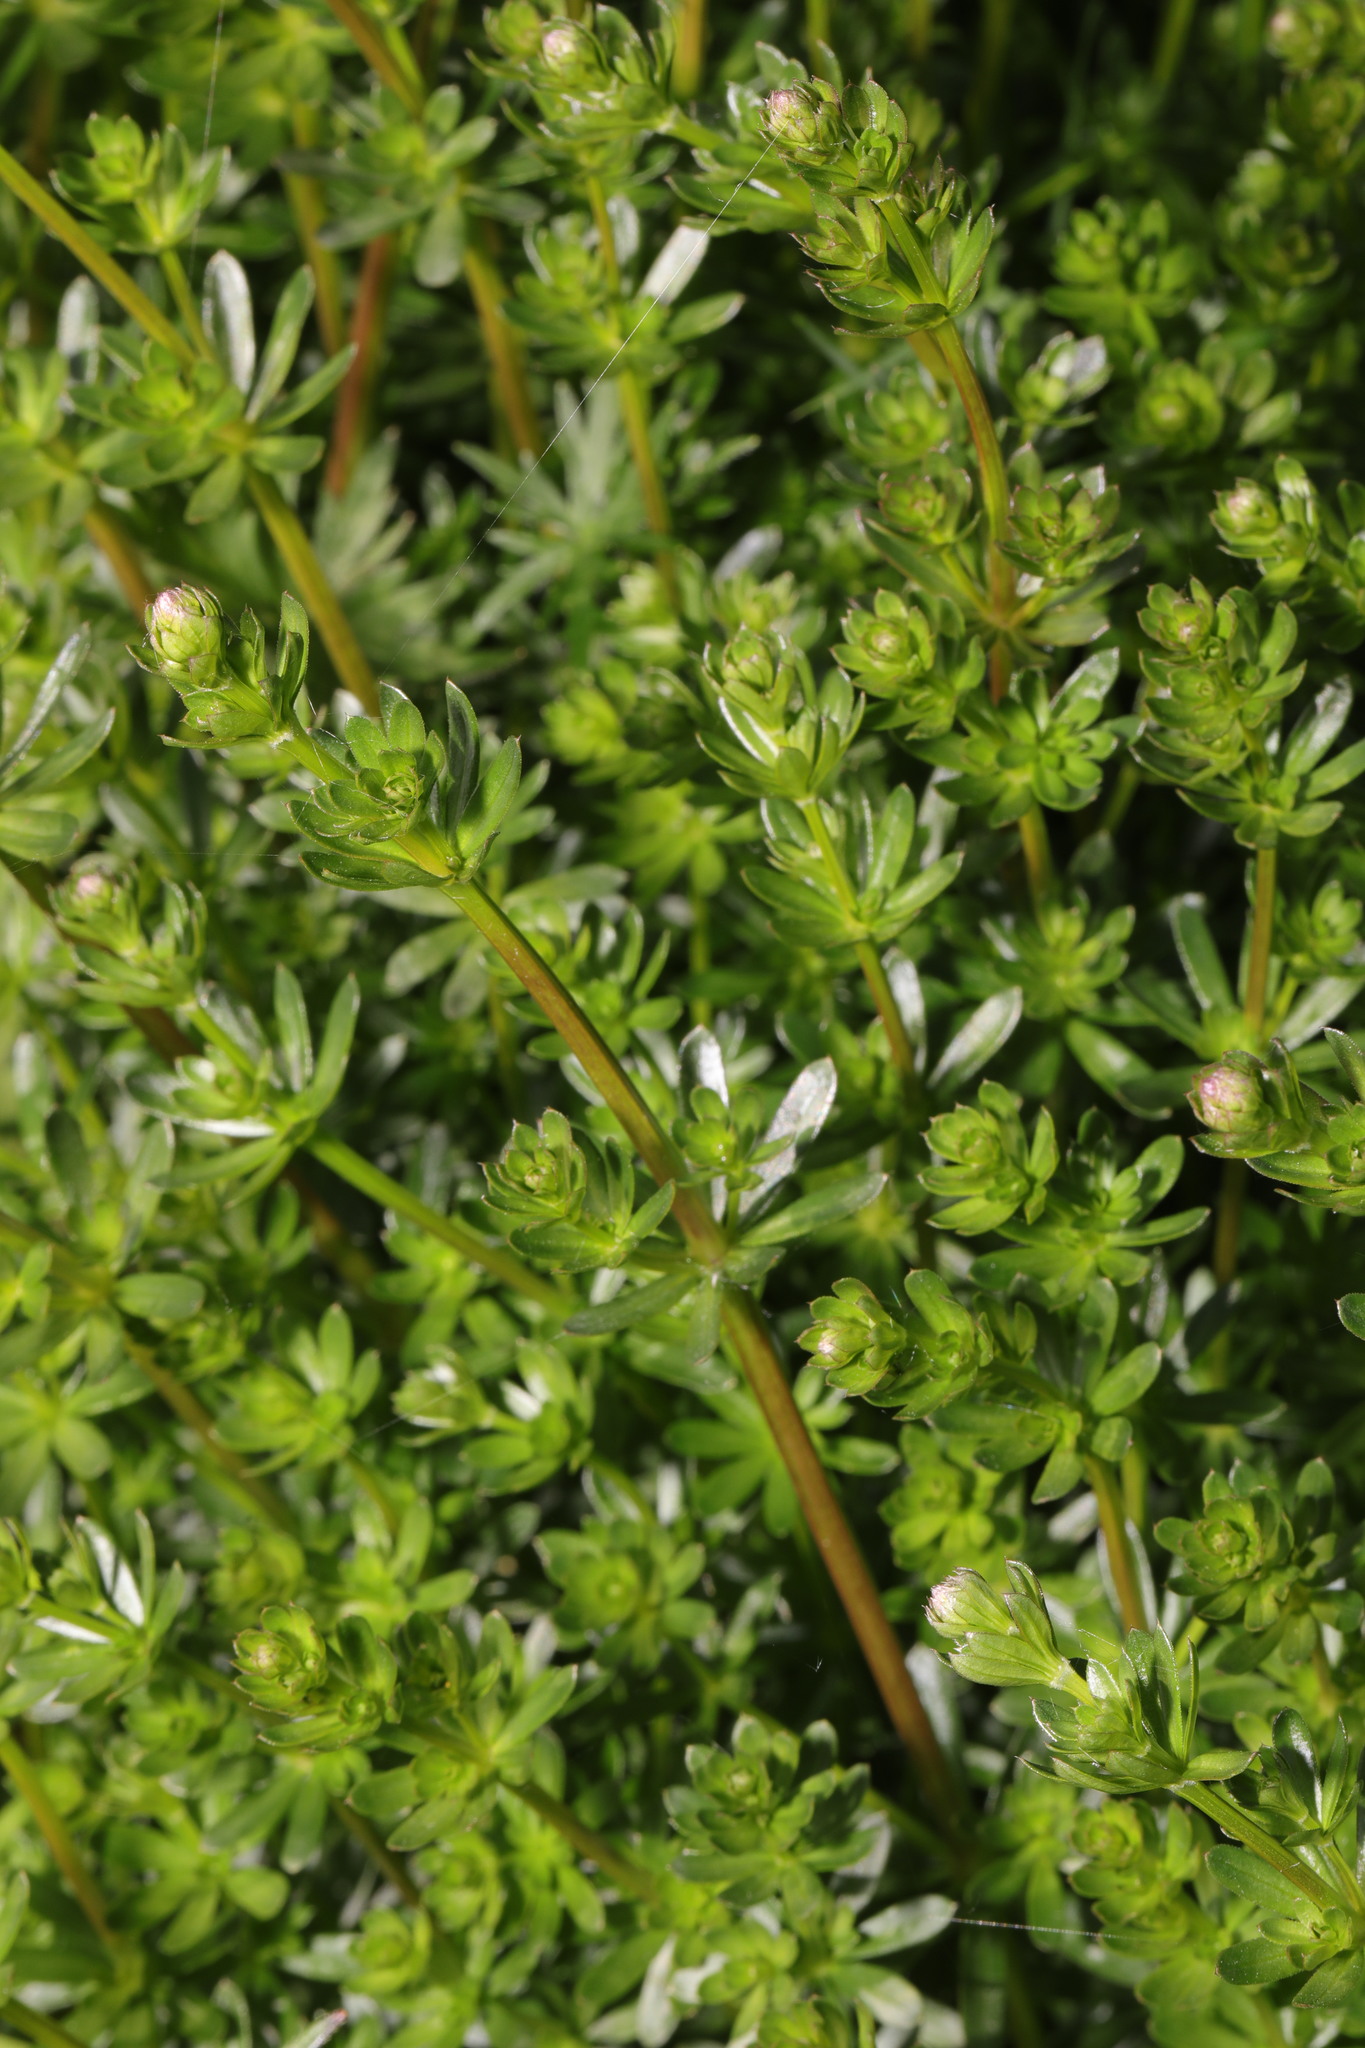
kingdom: Plantae
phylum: Tracheophyta
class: Magnoliopsida
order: Gentianales
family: Rubiaceae
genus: Galium
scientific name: Galium album
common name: White bedstraw
